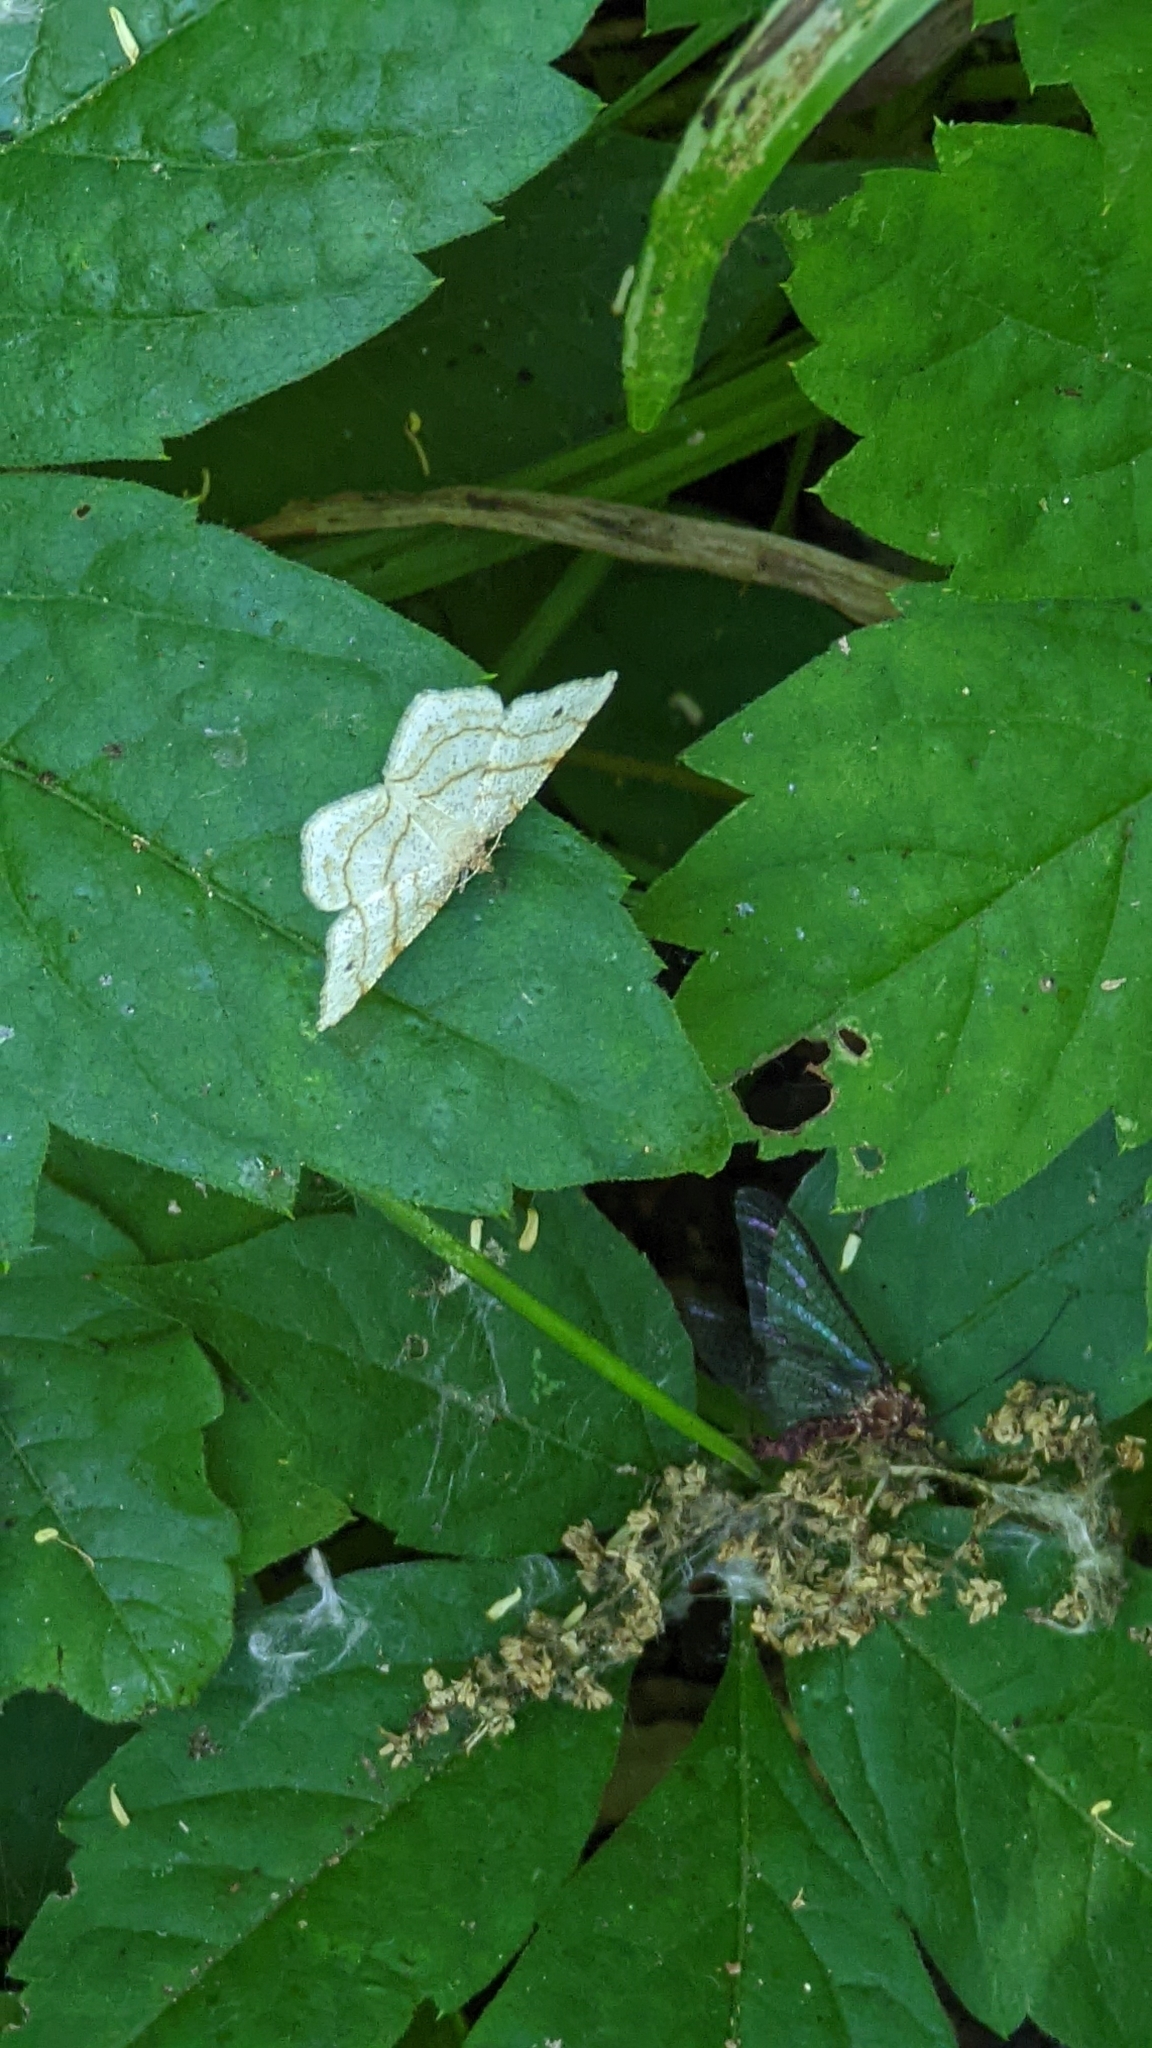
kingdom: Animalia
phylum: Arthropoda
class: Insecta
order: Lepidoptera
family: Geometridae
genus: Trigrammia
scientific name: Trigrammia quadrinotaria
